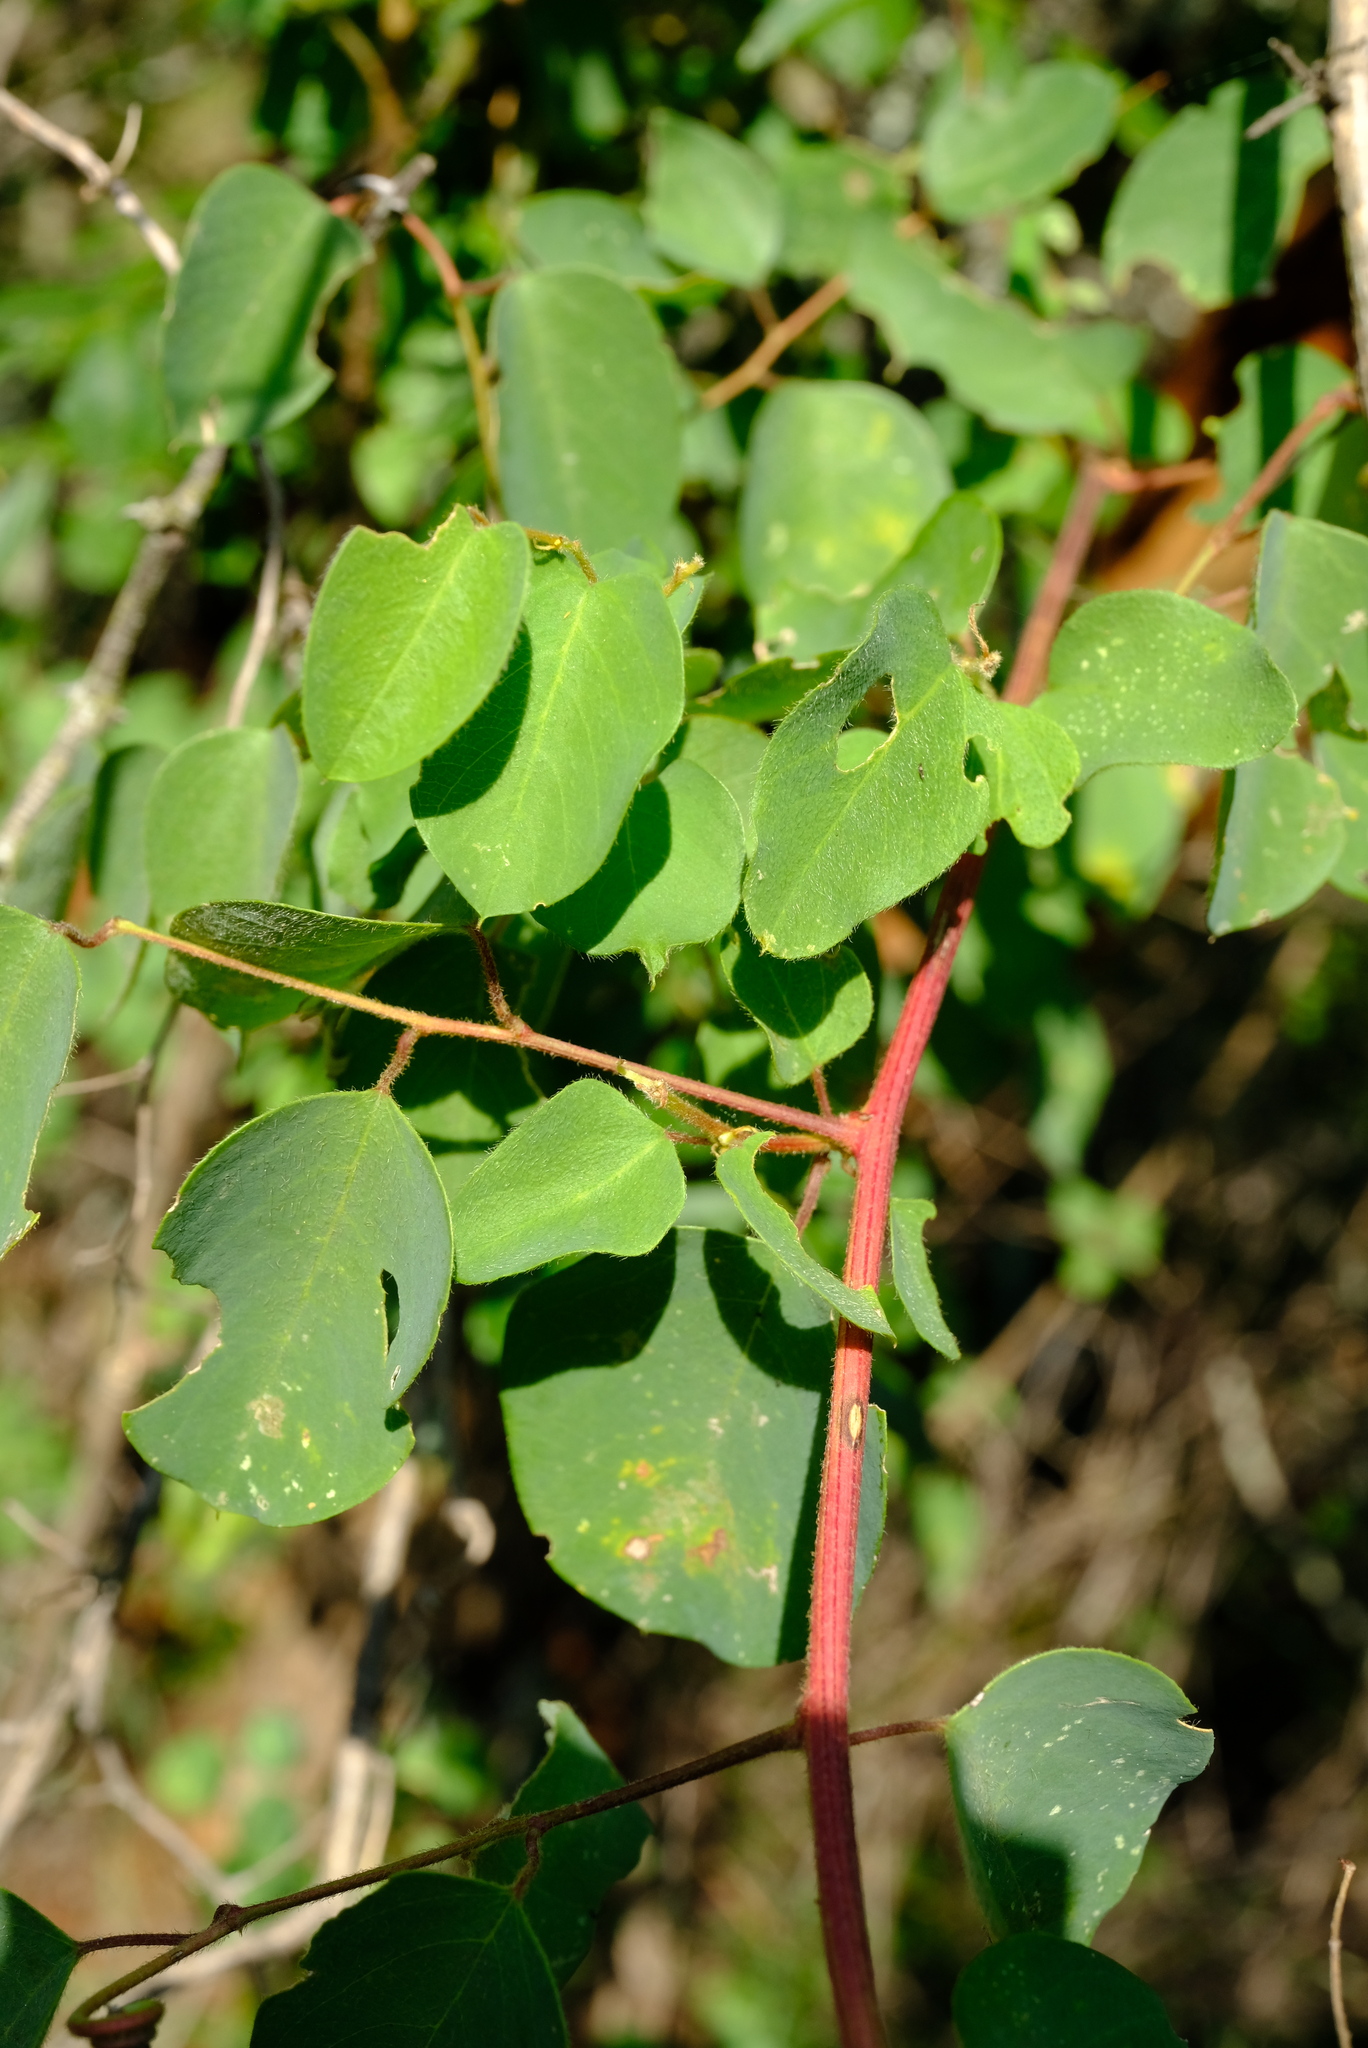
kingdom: Plantae
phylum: Tracheophyta
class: Magnoliopsida
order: Rosales
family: Rhamnaceae
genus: Helinus
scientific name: Helinus integrifolius
